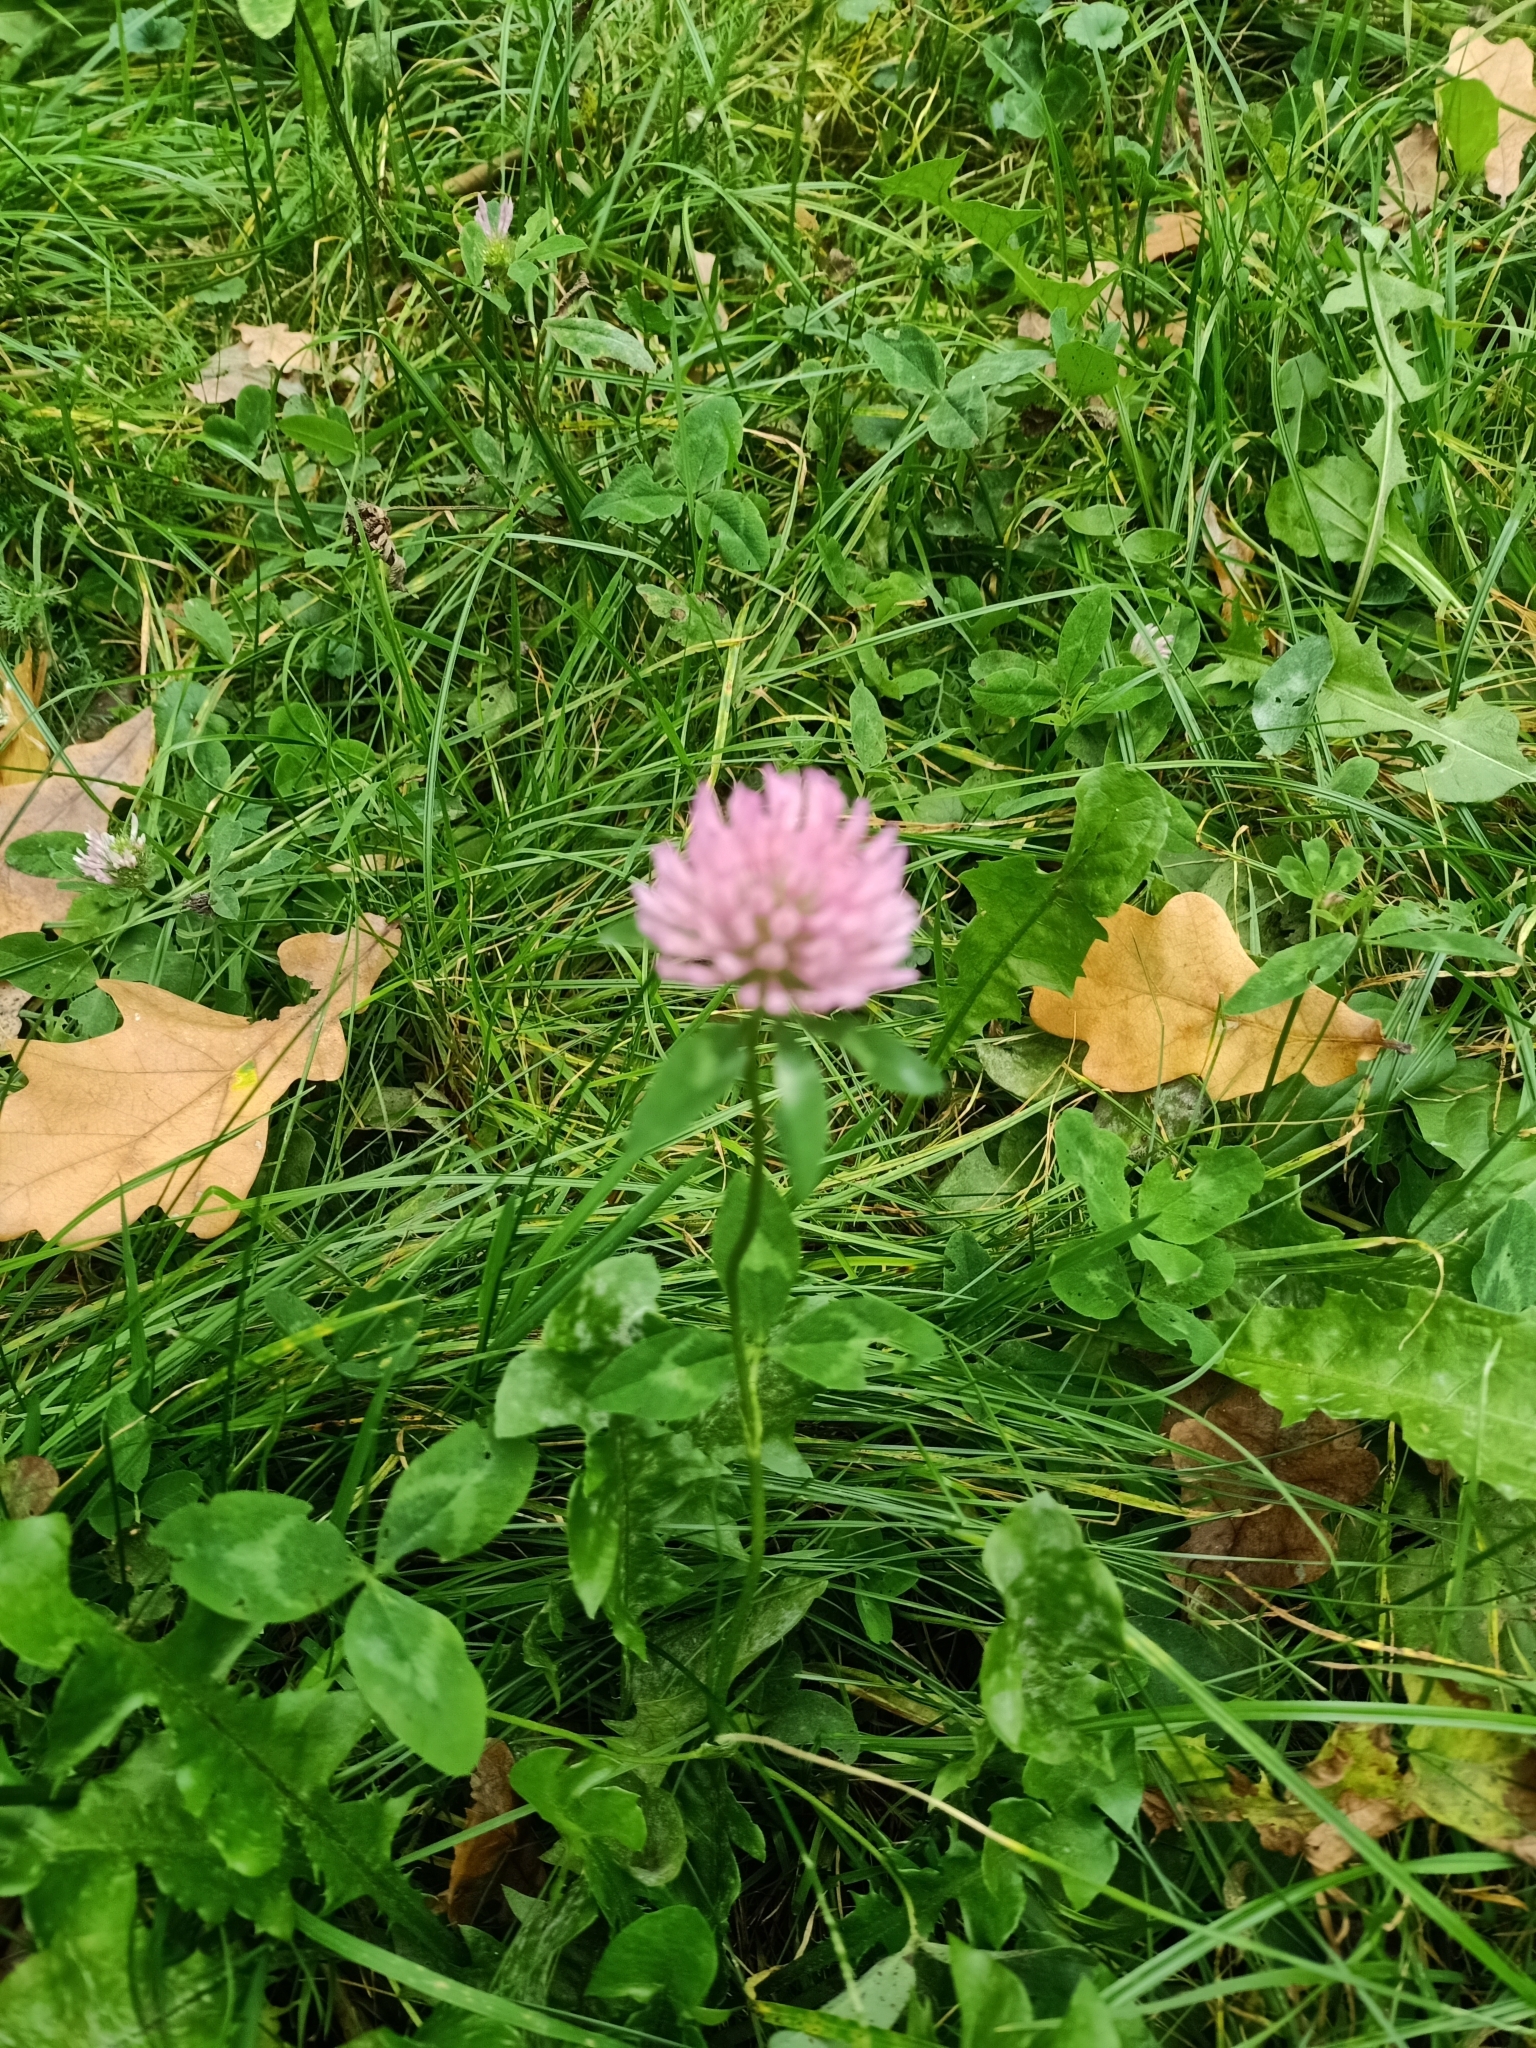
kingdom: Plantae
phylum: Tracheophyta
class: Magnoliopsida
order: Fabales
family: Fabaceae
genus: Trifolium
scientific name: Trifolium pratense
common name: Red clover
